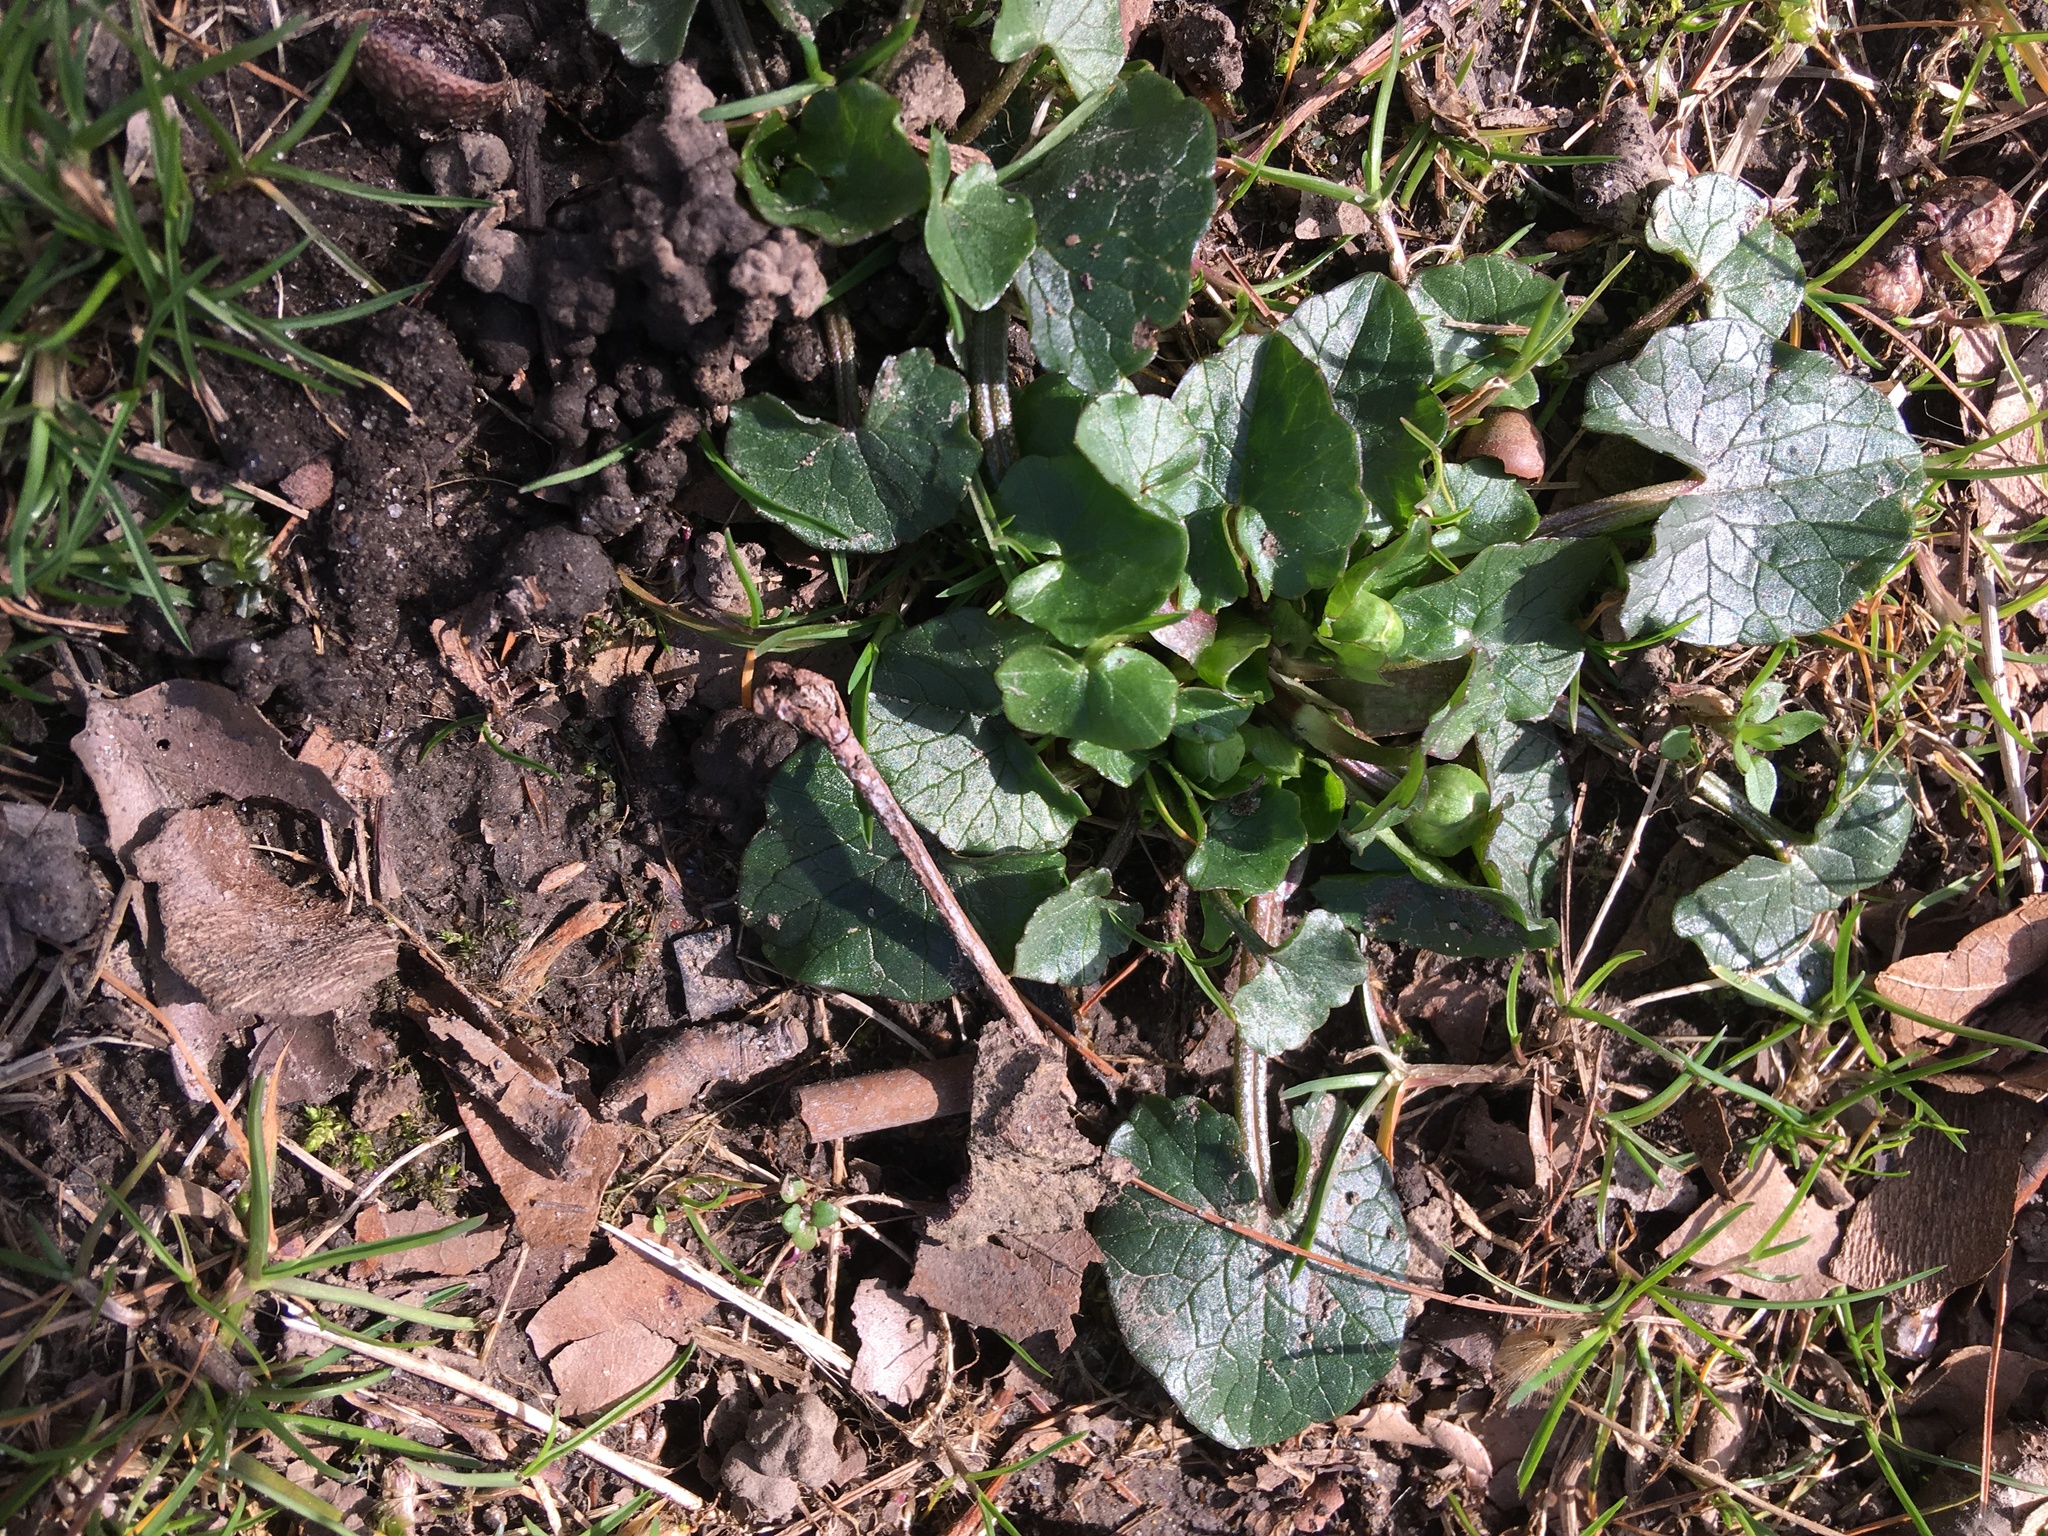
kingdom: Plantae
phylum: Tracheophyta
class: Magnoliopsida
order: Ranunculales
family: Ranunculaceae
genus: Ficaria
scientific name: Ficaria verna
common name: Lesser celandine
